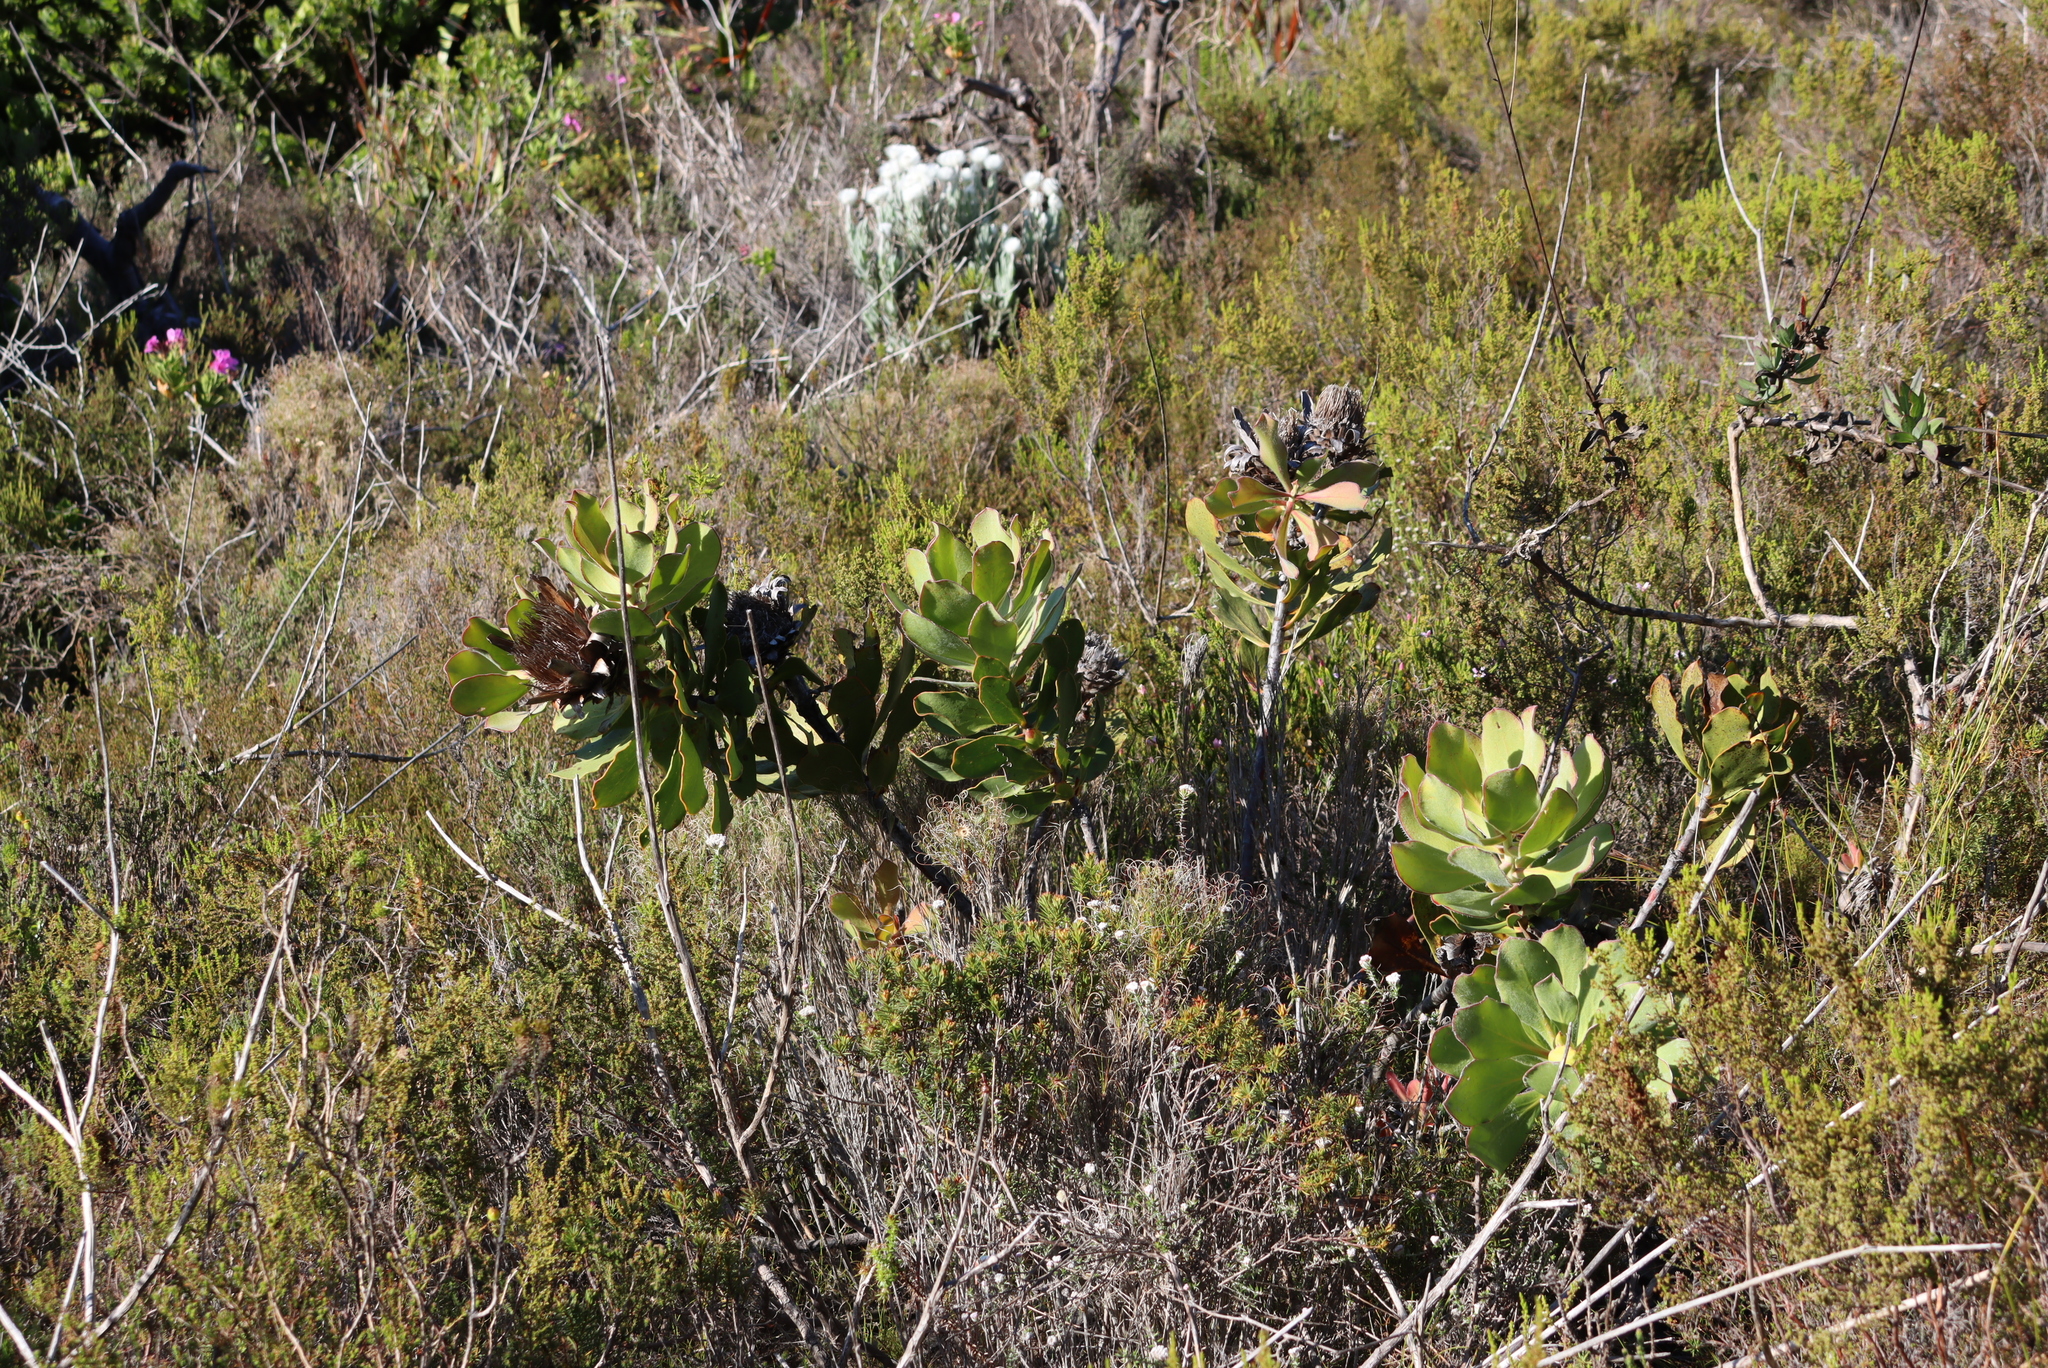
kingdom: Plantae
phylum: Tracheophyta
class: Magnoliopsida
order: Proteales
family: Proteaceae
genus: Protea
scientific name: Protea speciosa
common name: Brown-beard sugarbush
